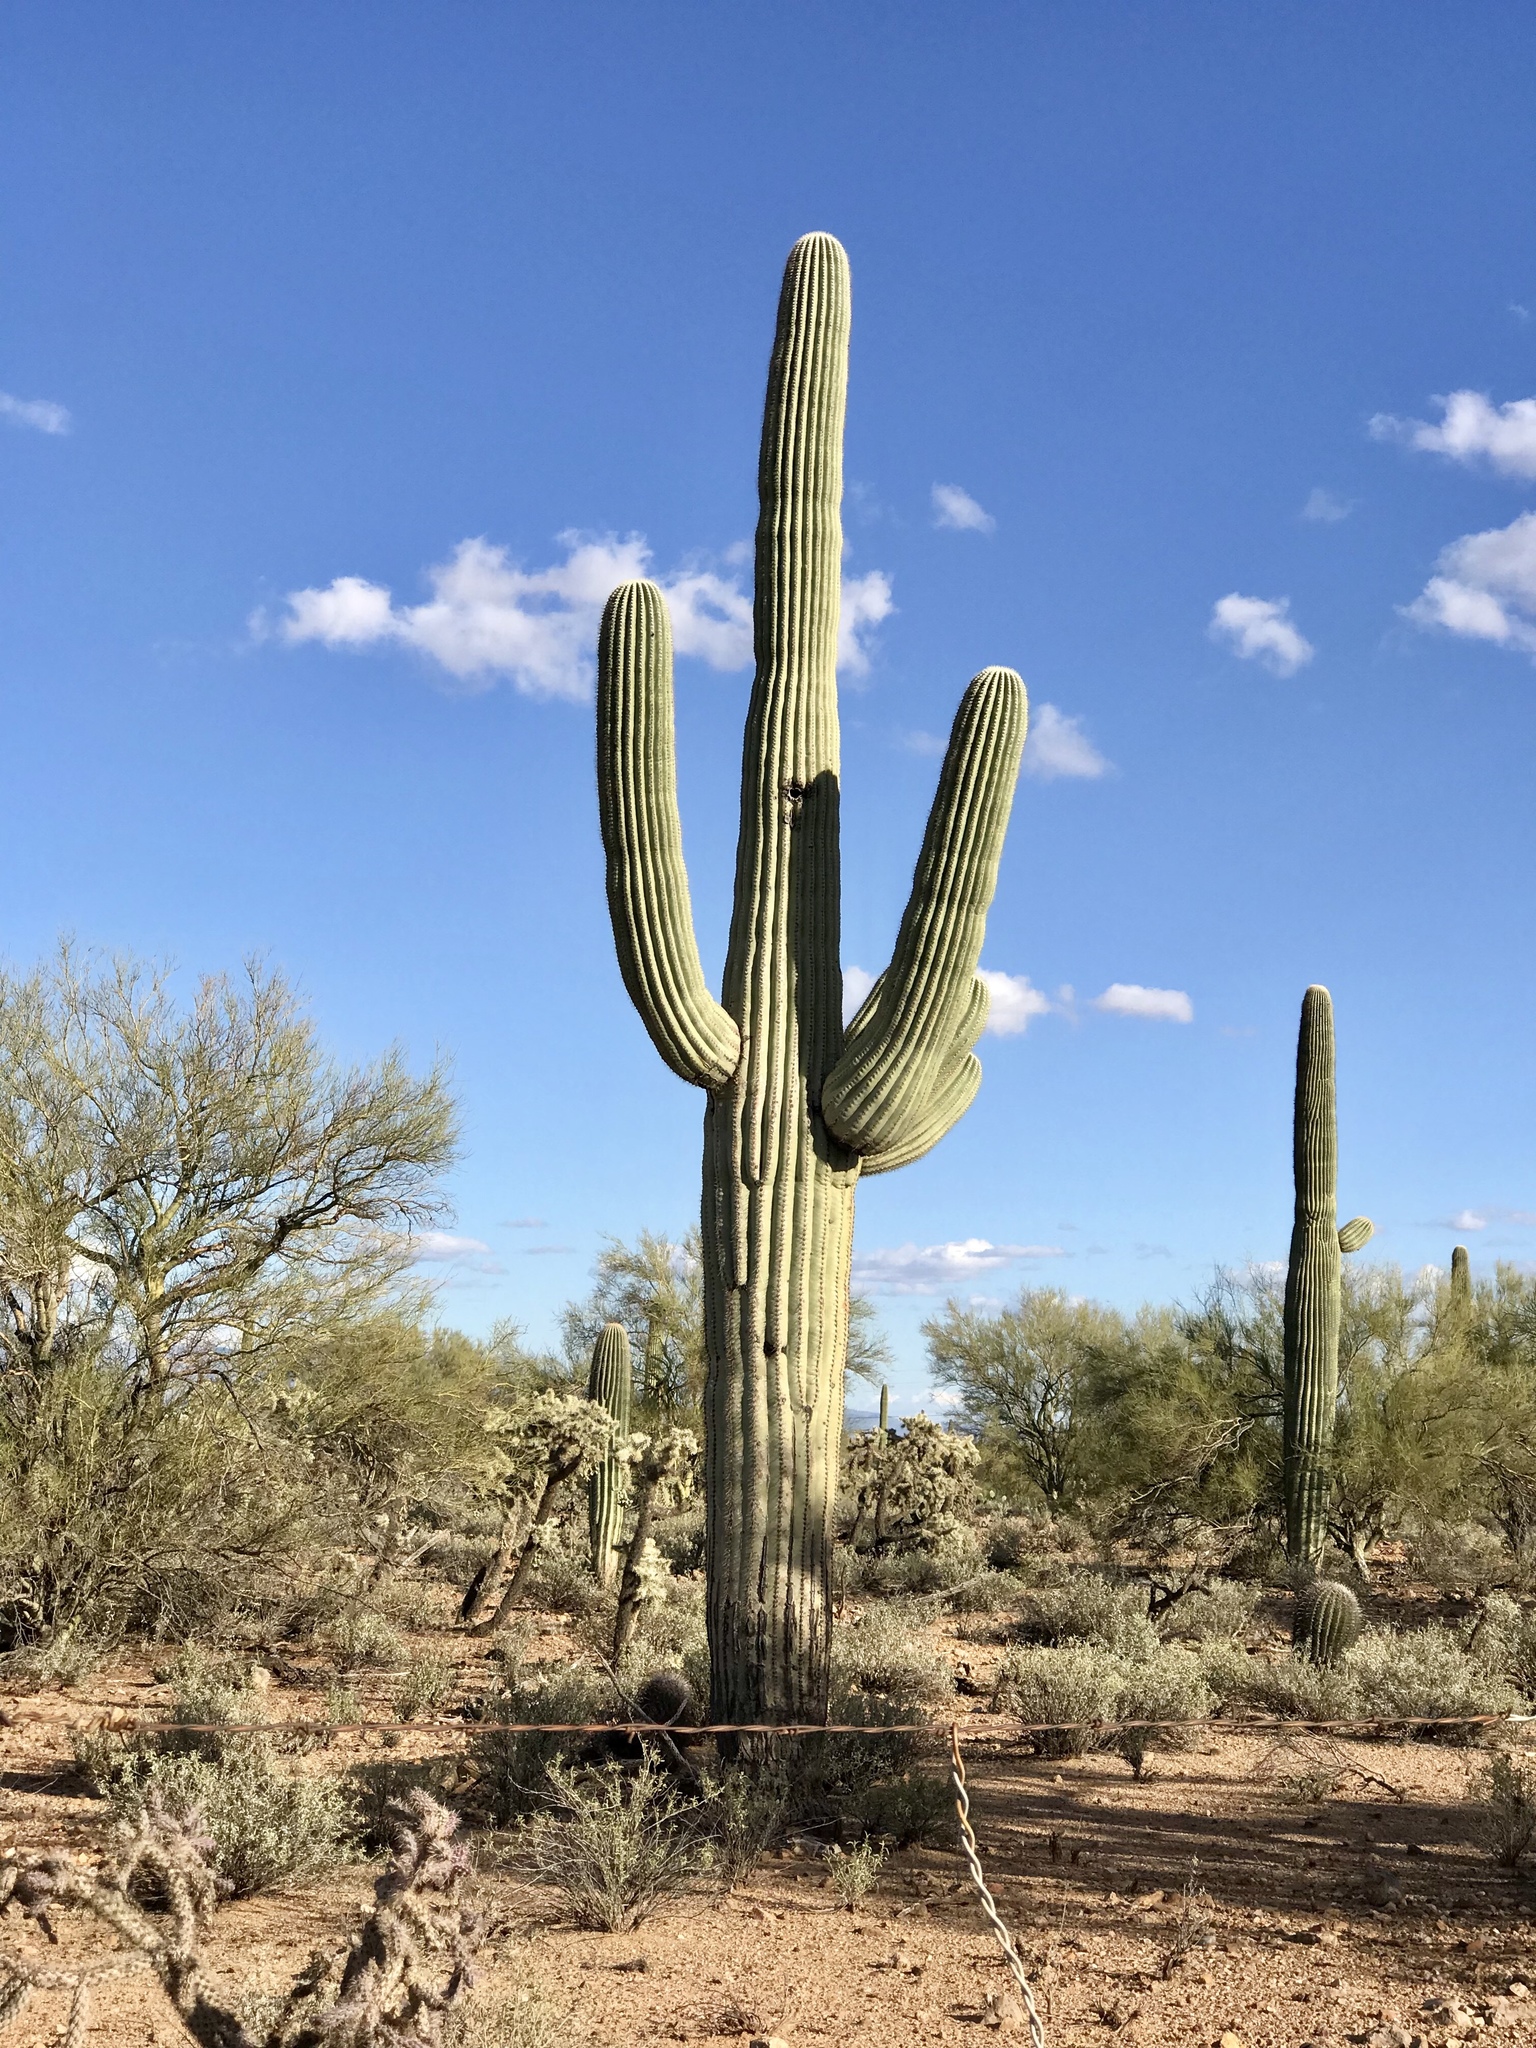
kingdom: Plantae
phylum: Tracheophyta
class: Magnoliopsida
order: Caryophyllales
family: Cactaceae
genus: Carnegiea
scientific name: Carnegiea gigantea
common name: Saguaro
